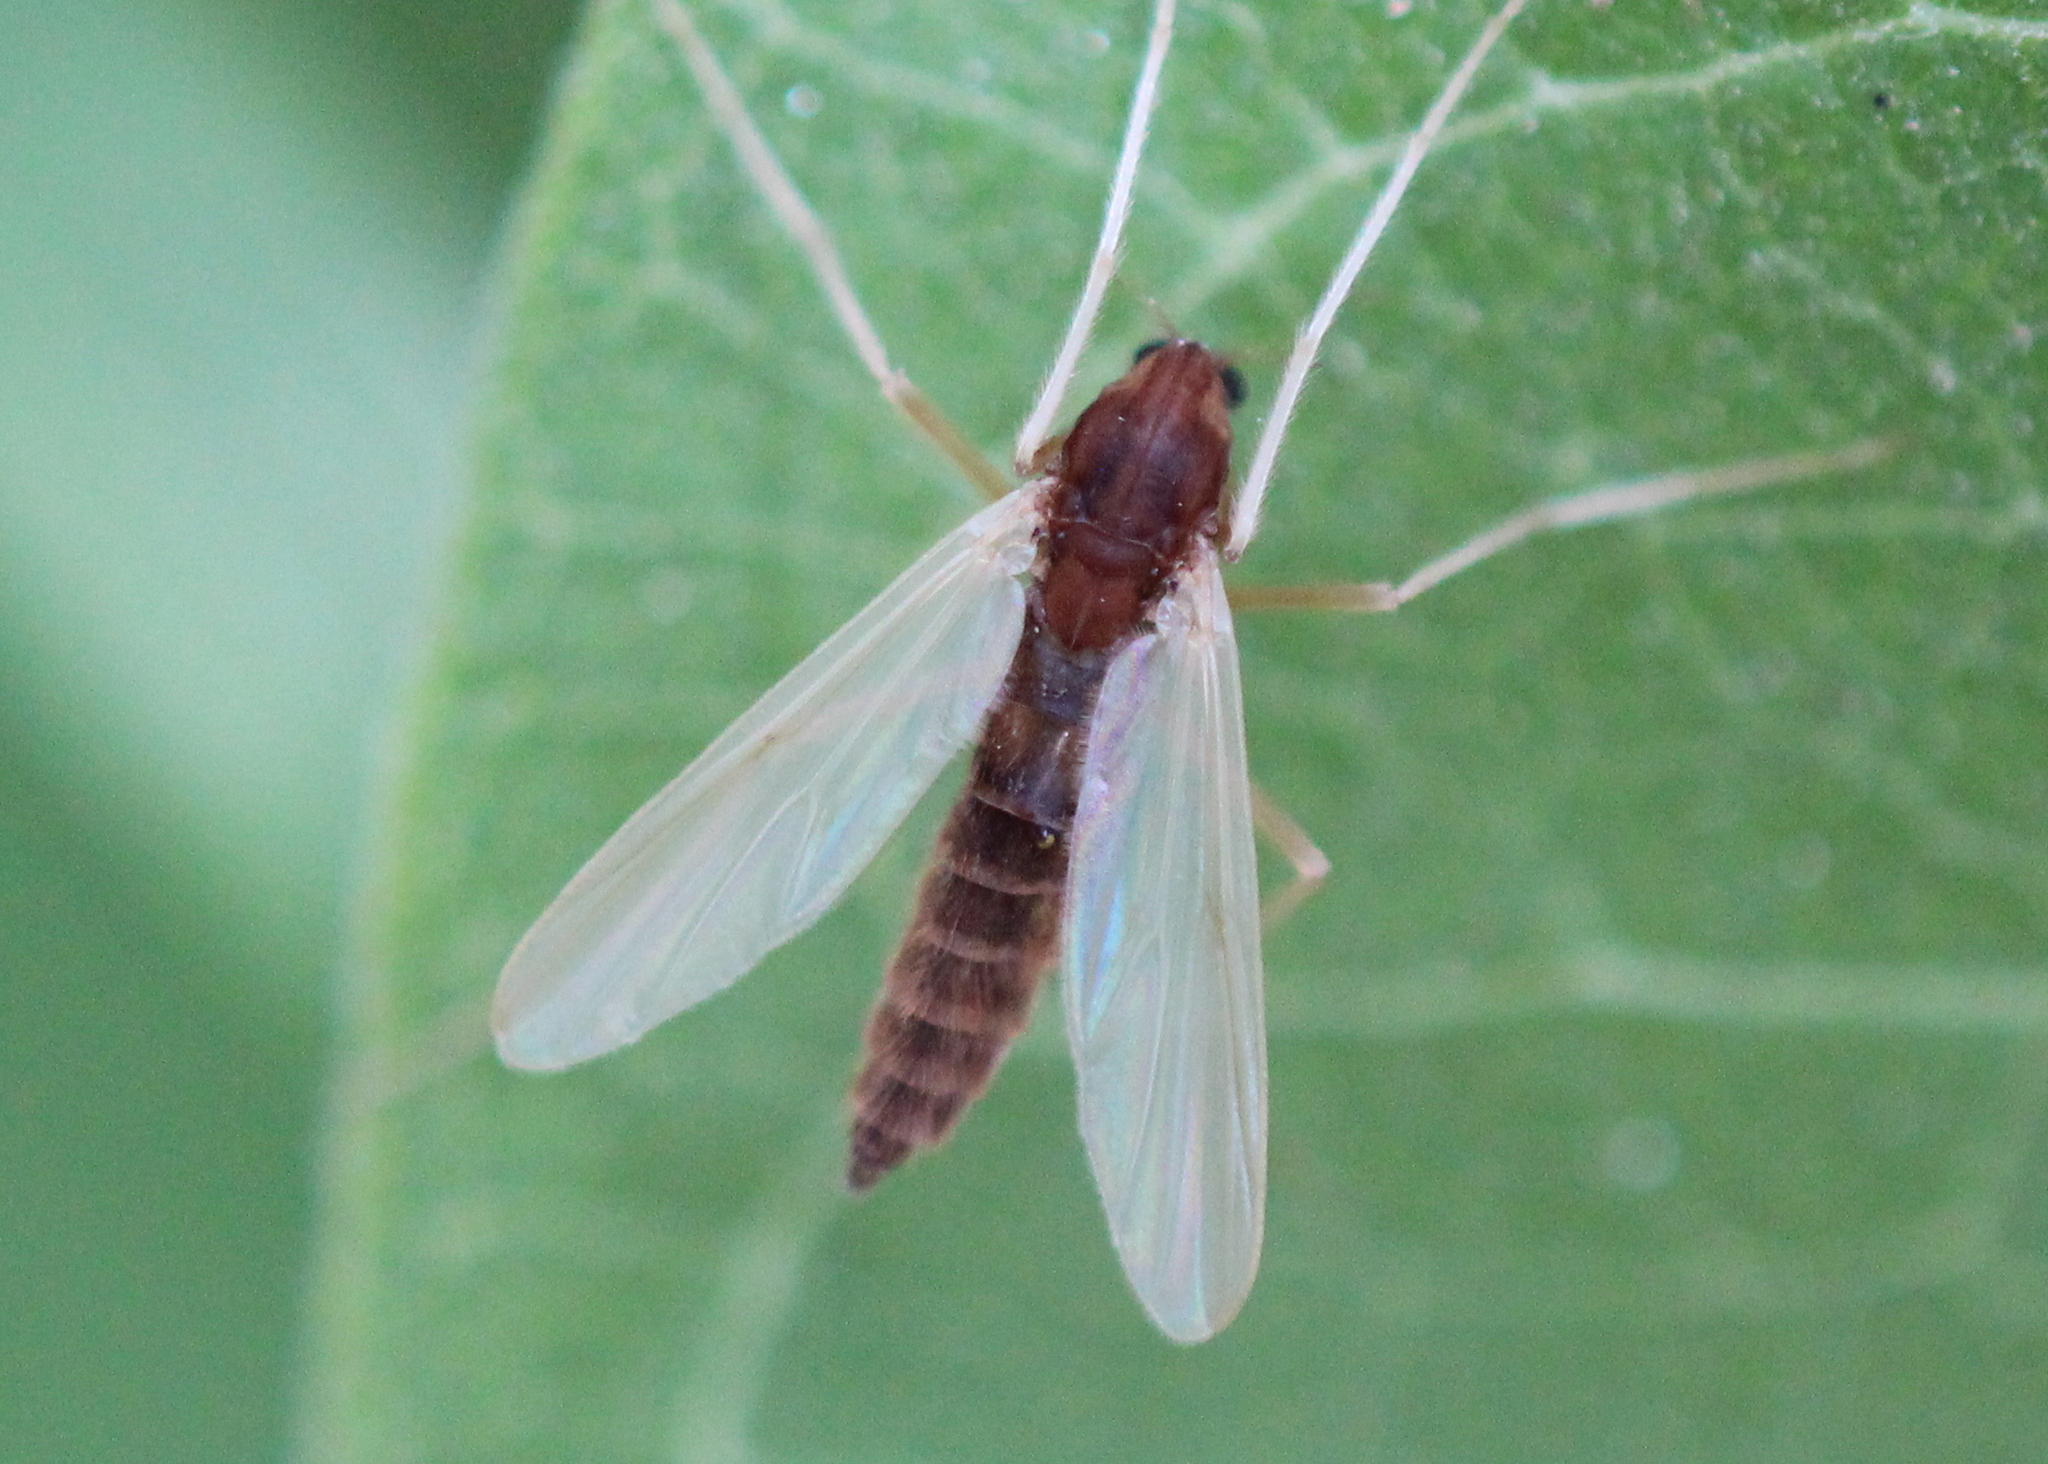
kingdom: Animalia
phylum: Arthropoda
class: Insecta
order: Diptera
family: Chironomidae
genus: Hyporhygma
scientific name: Hyporhygma quadripunctatus
